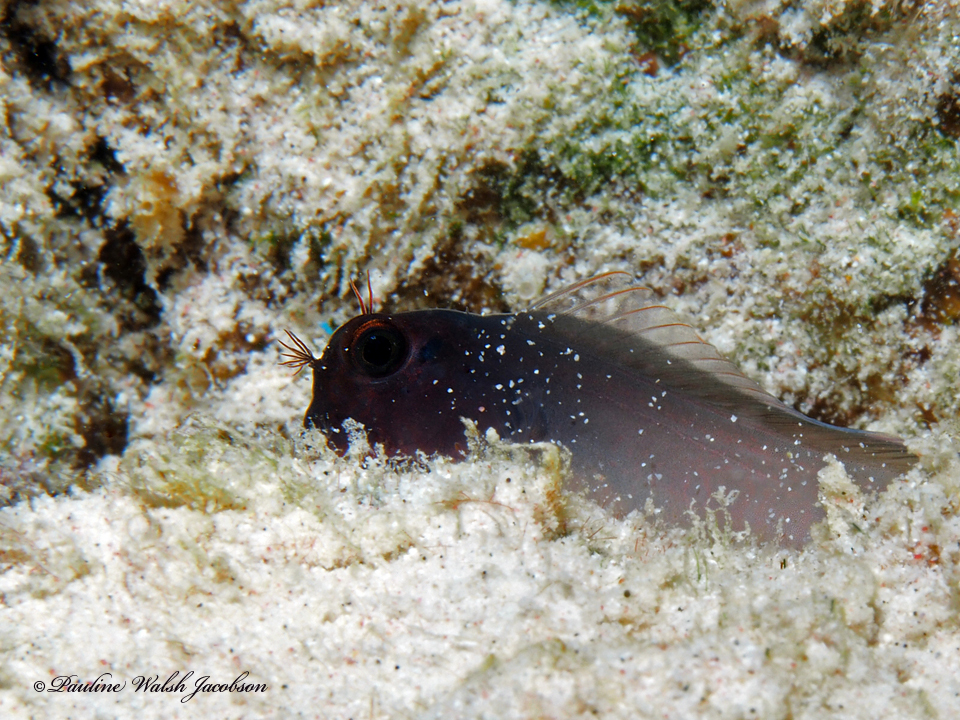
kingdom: Animalia
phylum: Chordata
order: Perciformes
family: Blenniidae
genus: Ophioblennius
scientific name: Ophioblennius macclurei
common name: Redlip blenny
